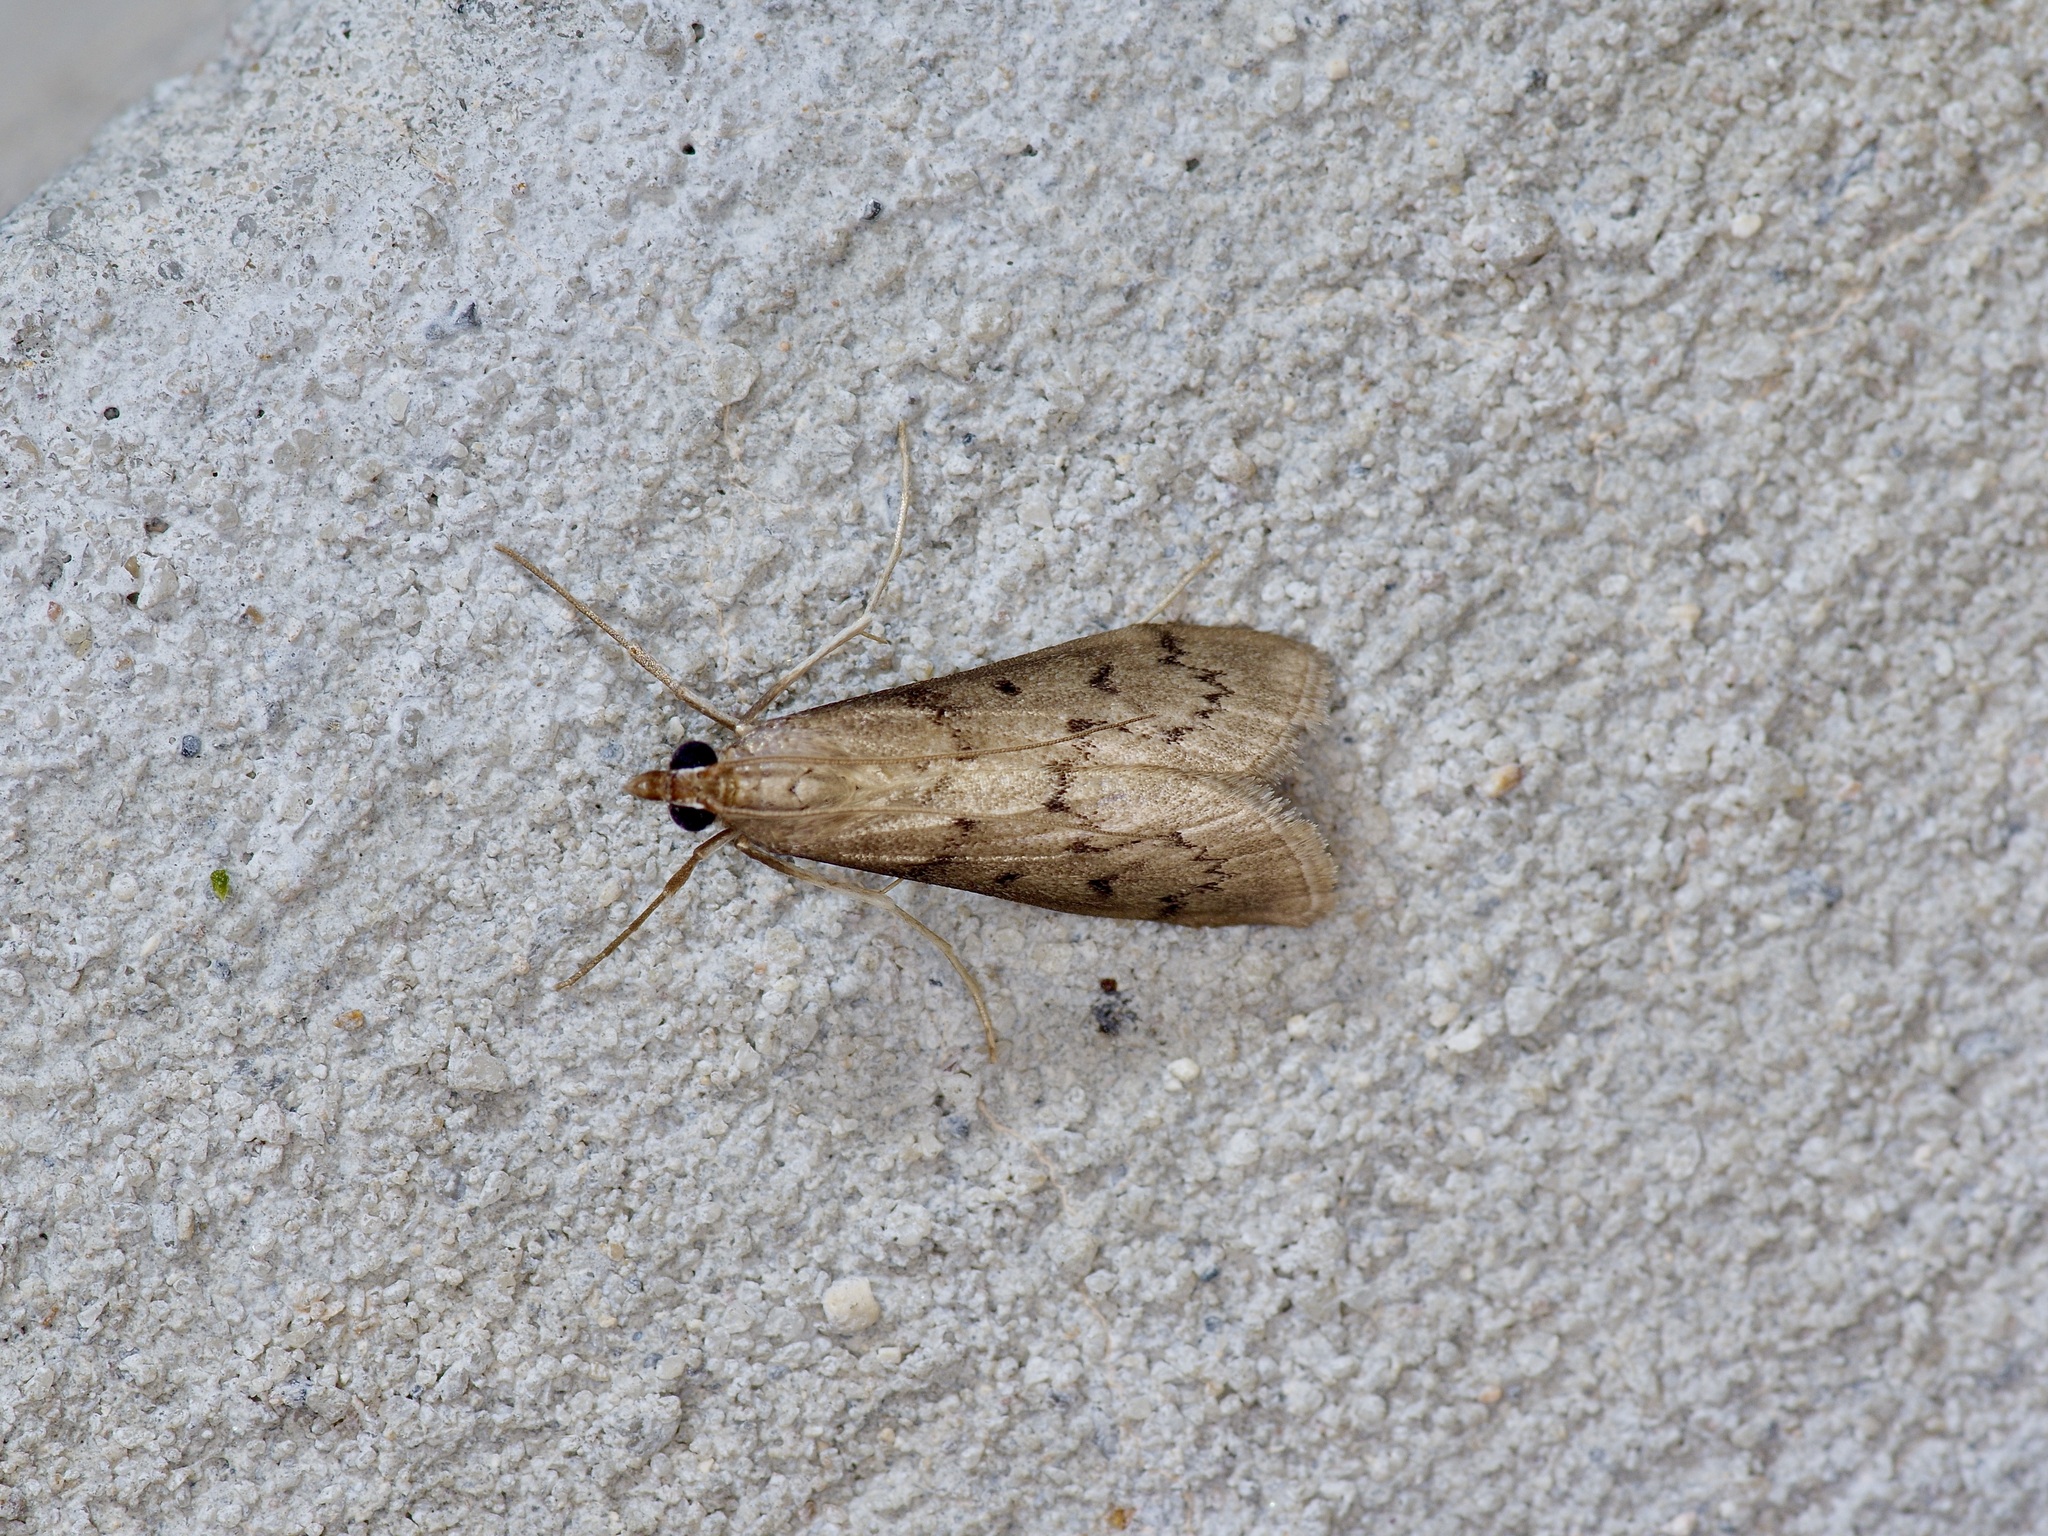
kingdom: Animalia
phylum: Arthropoda
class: Insecta
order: Lepidoptera
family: Crambidae
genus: Lamprosema
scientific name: Lamprosema Blepharomastix haedulalis
